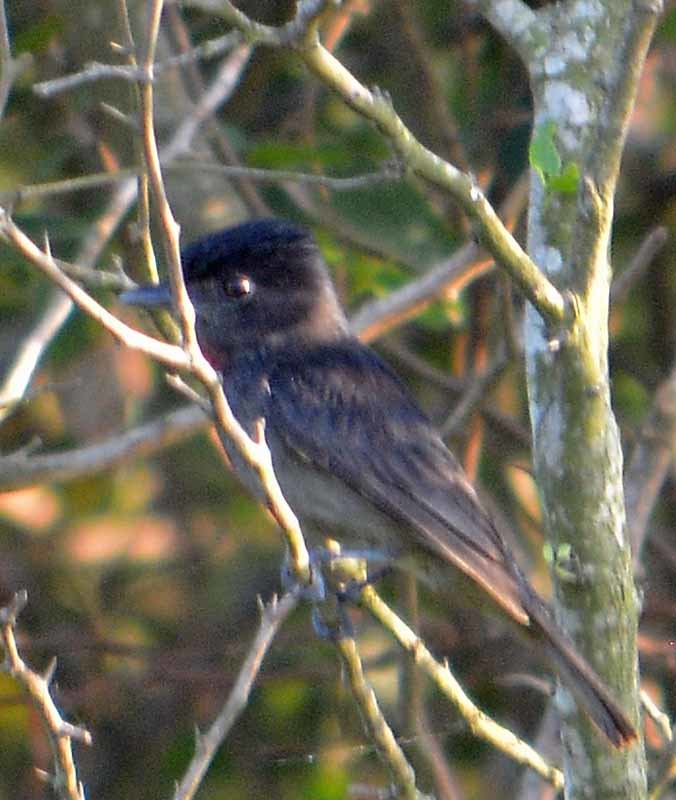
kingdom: Animalia
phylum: Chordata
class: Aves
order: Passeriformes
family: Cotingidae
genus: Pachyramphus
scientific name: Pachyramphus aglaiae
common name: Rose-throated becard
